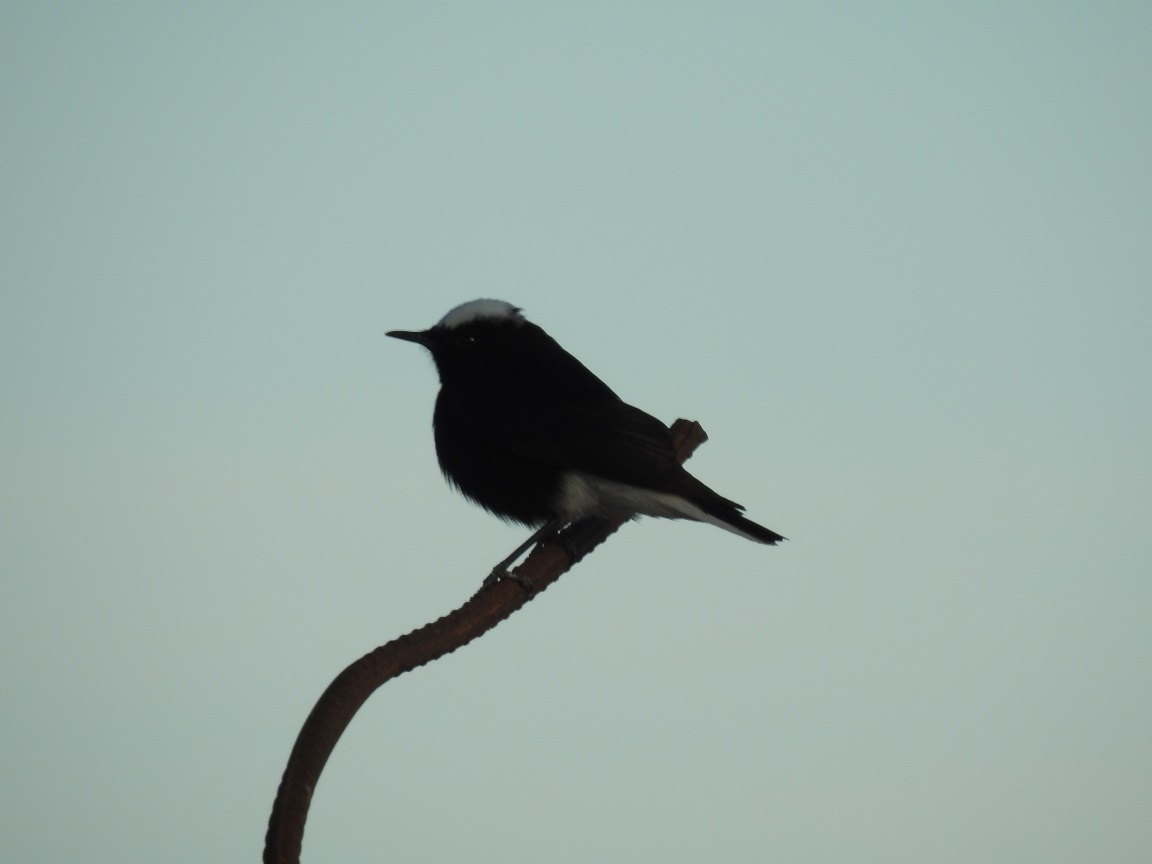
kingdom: Animalia
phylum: Chordata
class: Aves
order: Passeriformes
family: Muscicapidae
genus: Oenanthe
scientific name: Oenanthe leucopyga
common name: White-crowned wheatear
